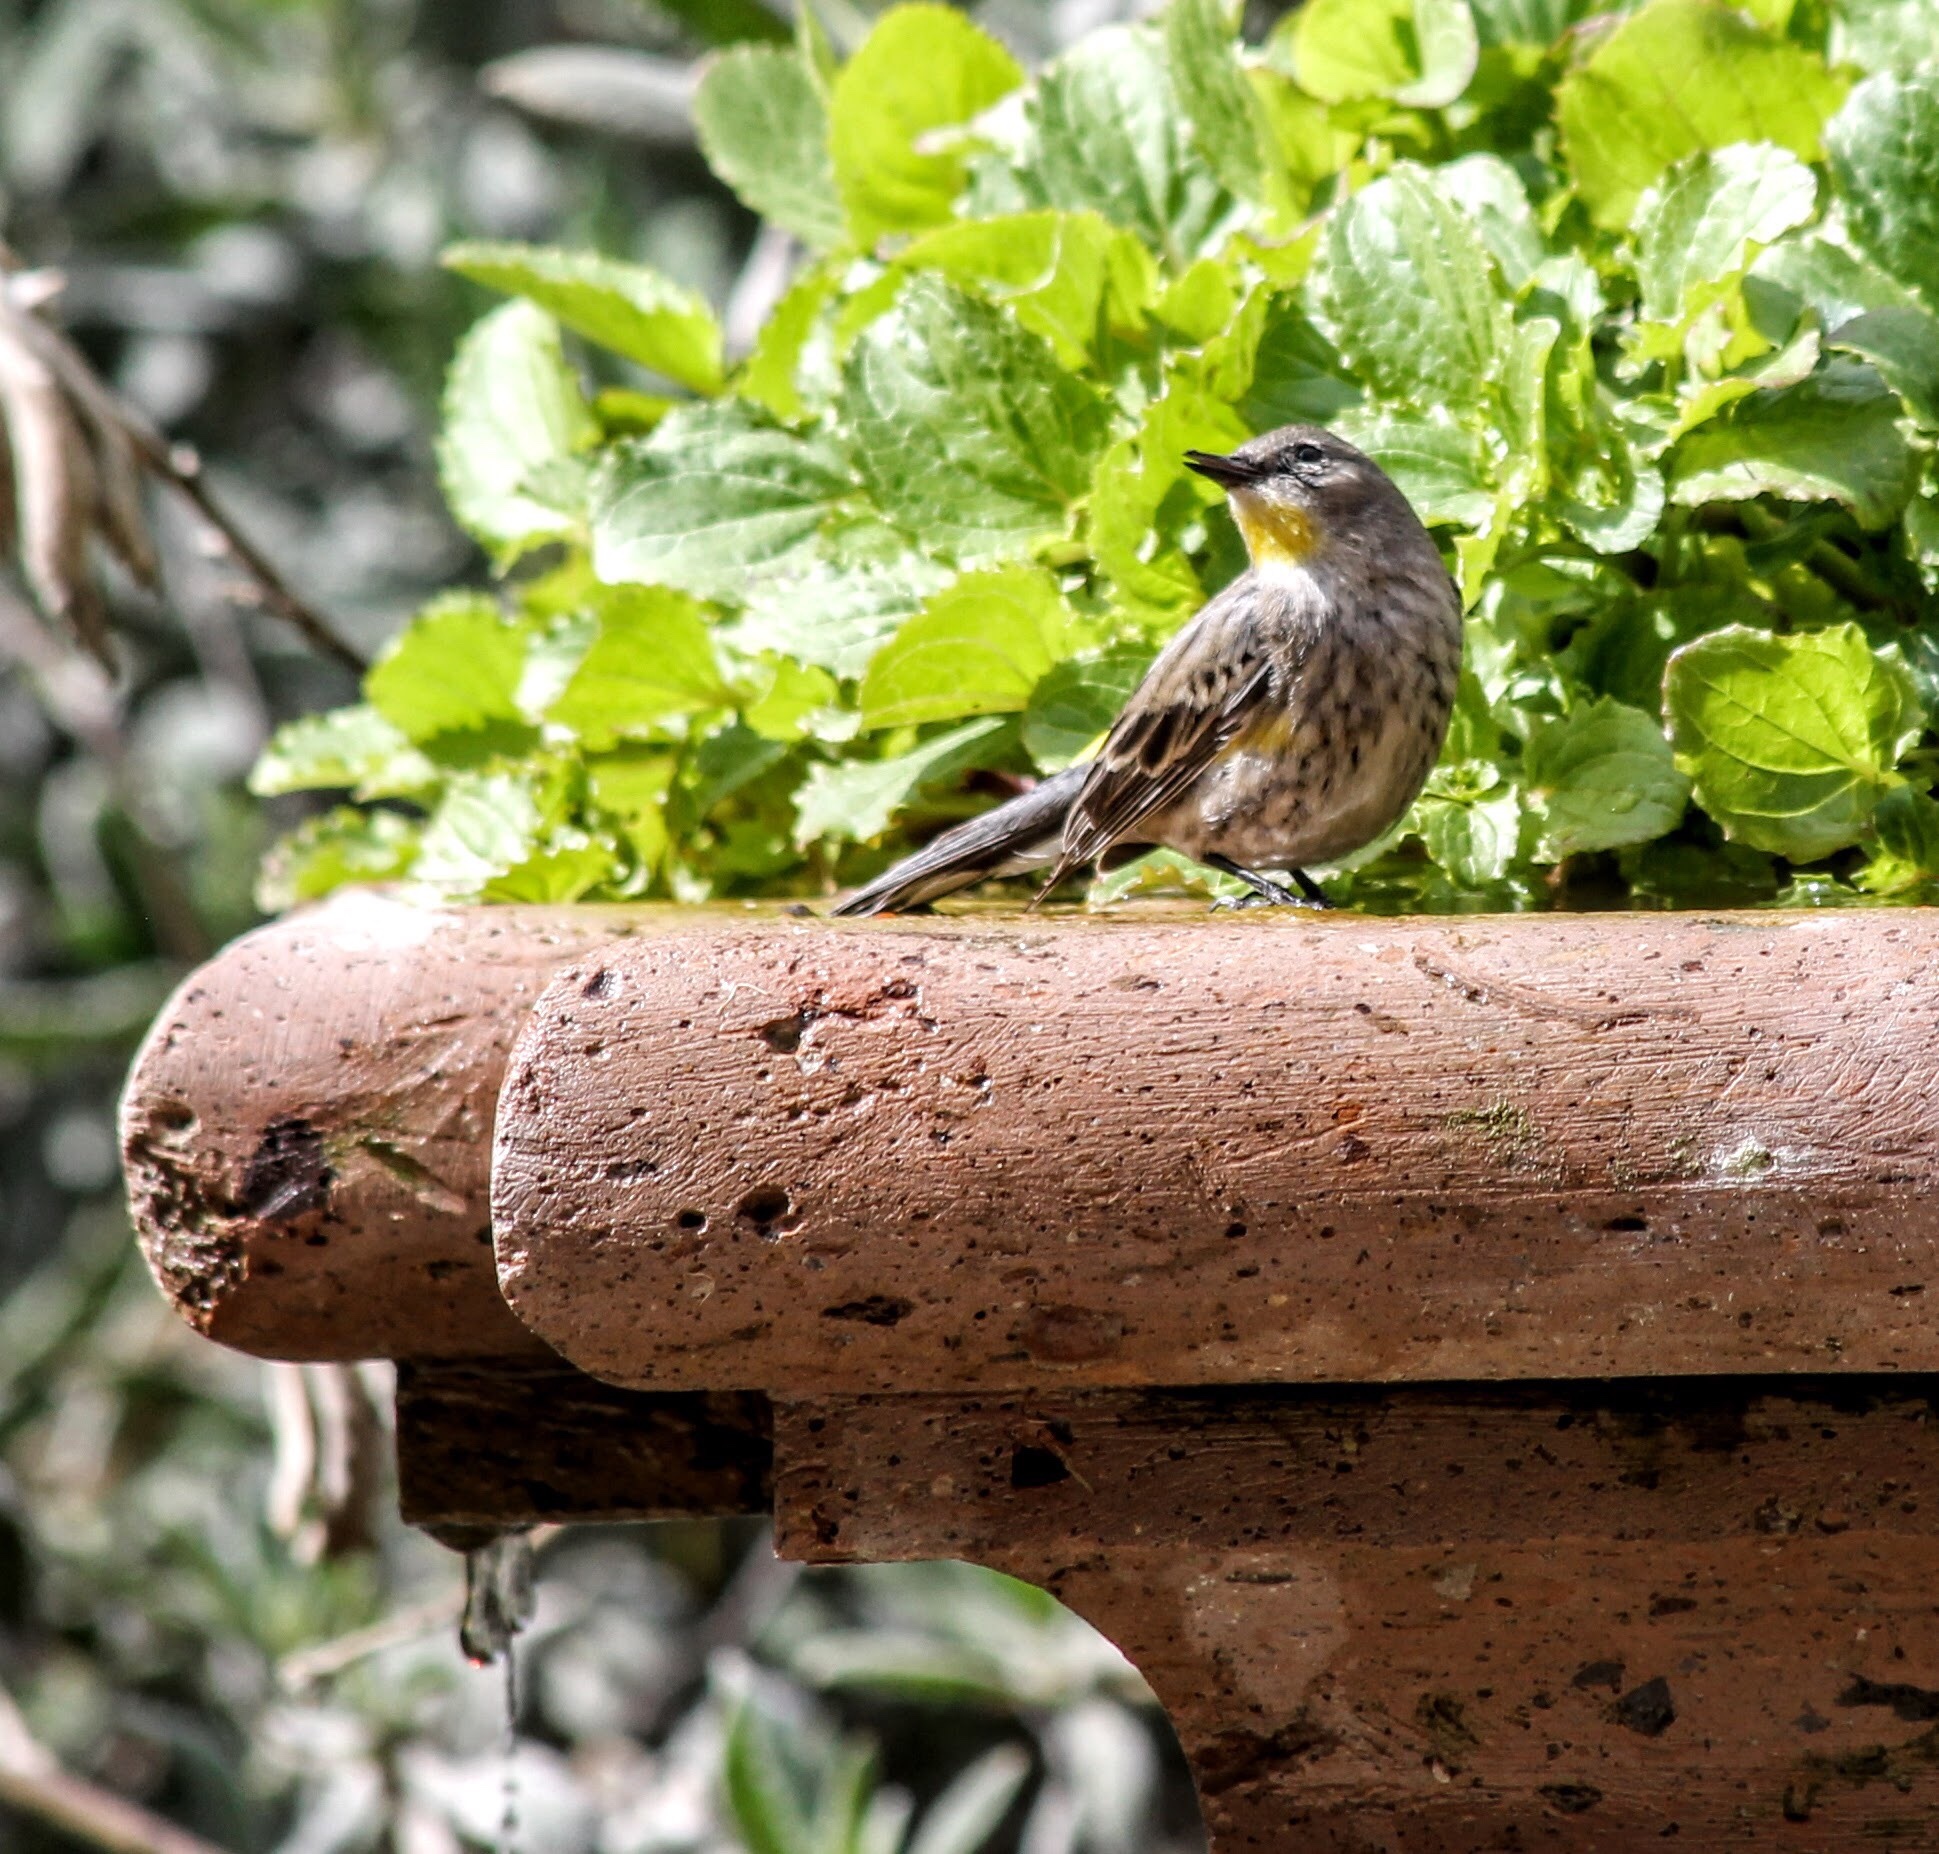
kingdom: Animalia
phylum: Chordata
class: Aves
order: Passeriformes
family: Parulidae
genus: Setophaga
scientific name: Setophaga coronata
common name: Myrtle warbler
